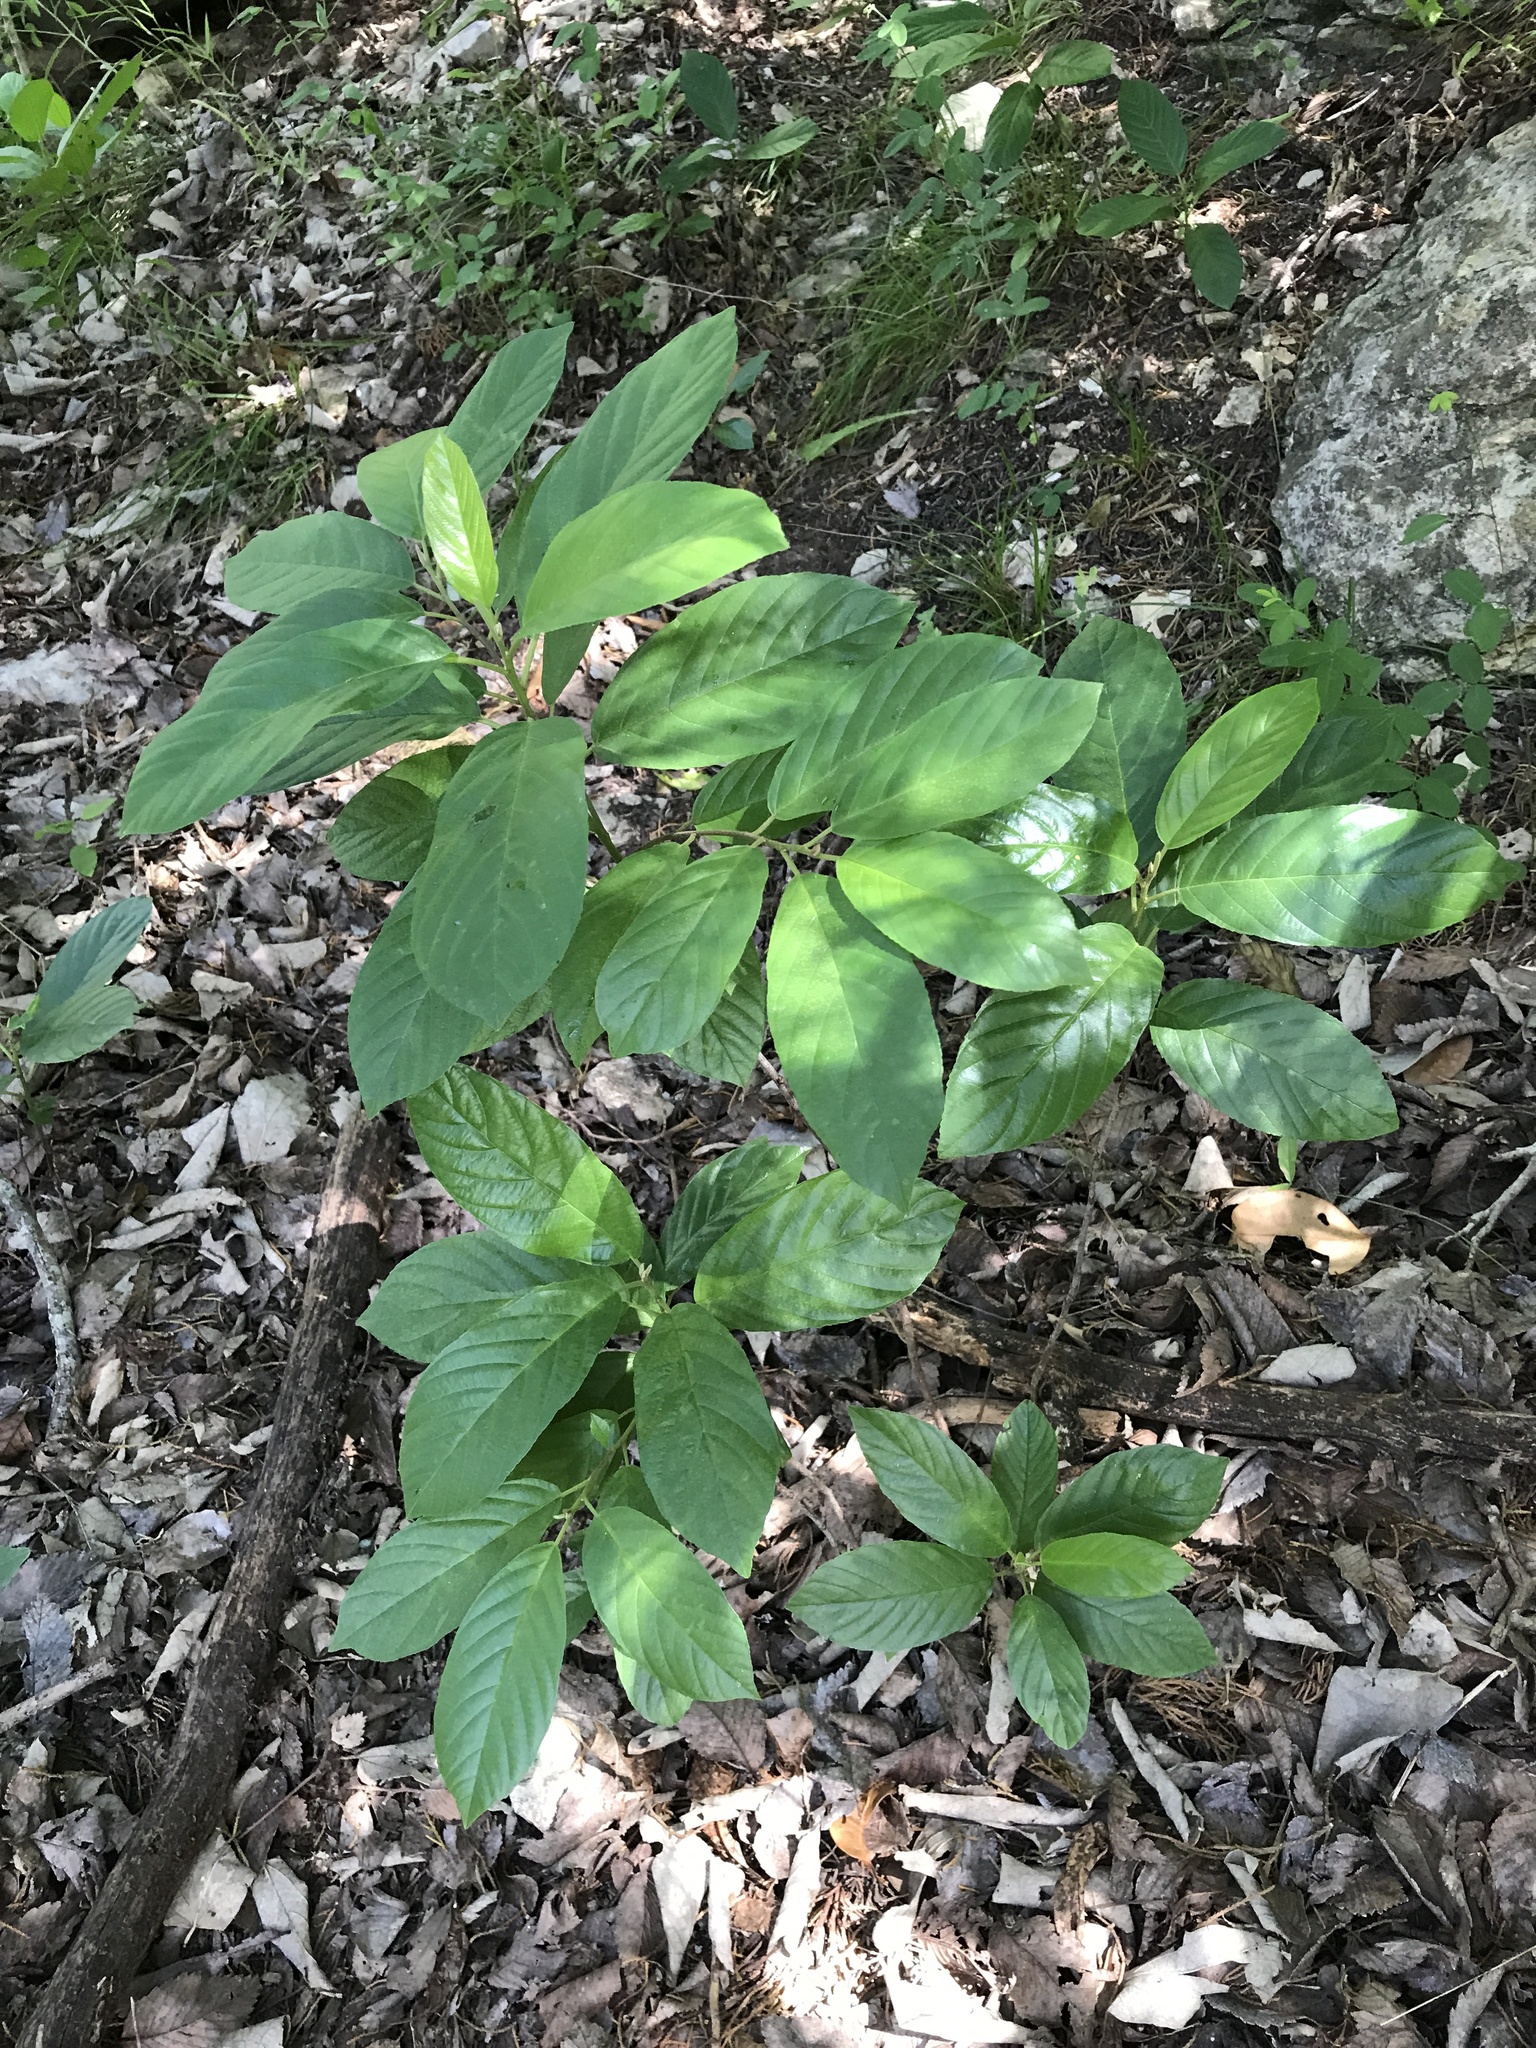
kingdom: Plantae
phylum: Tracheophyta
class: Magnoliopsida
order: Rosales
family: Rhamnaceae
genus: Frangula
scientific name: Frangula caroliniana
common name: Carolina buckthorn
